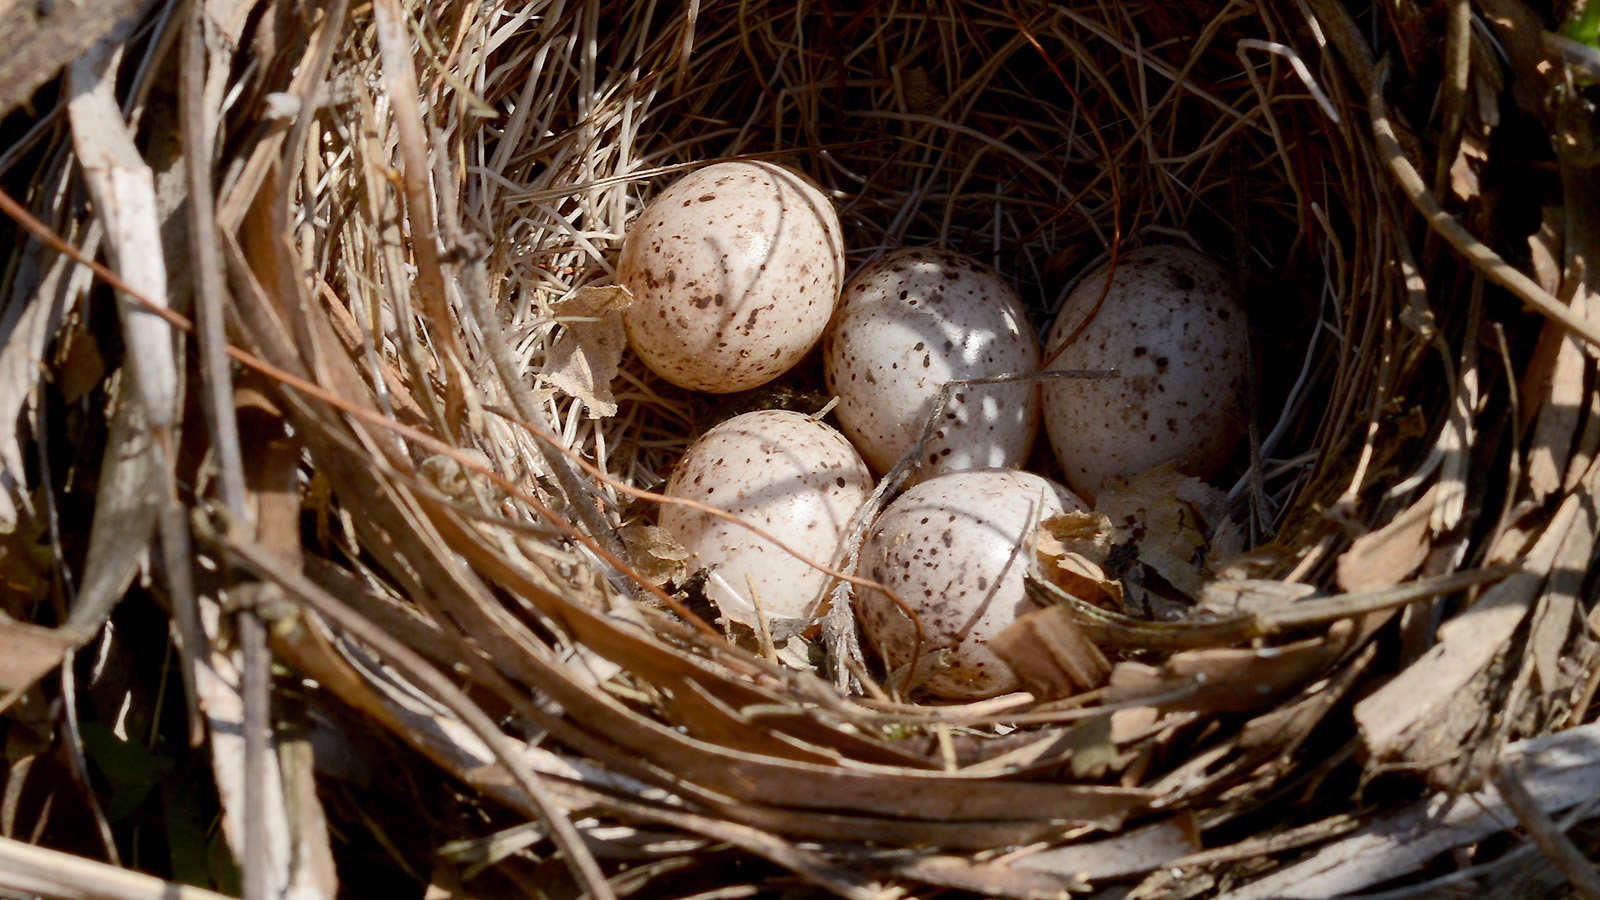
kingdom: Animalia
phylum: Chordata
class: Aves
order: Passeriformes
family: Emberizidae
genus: Emberiza
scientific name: Emberiza cioides
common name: Meadow bunting
